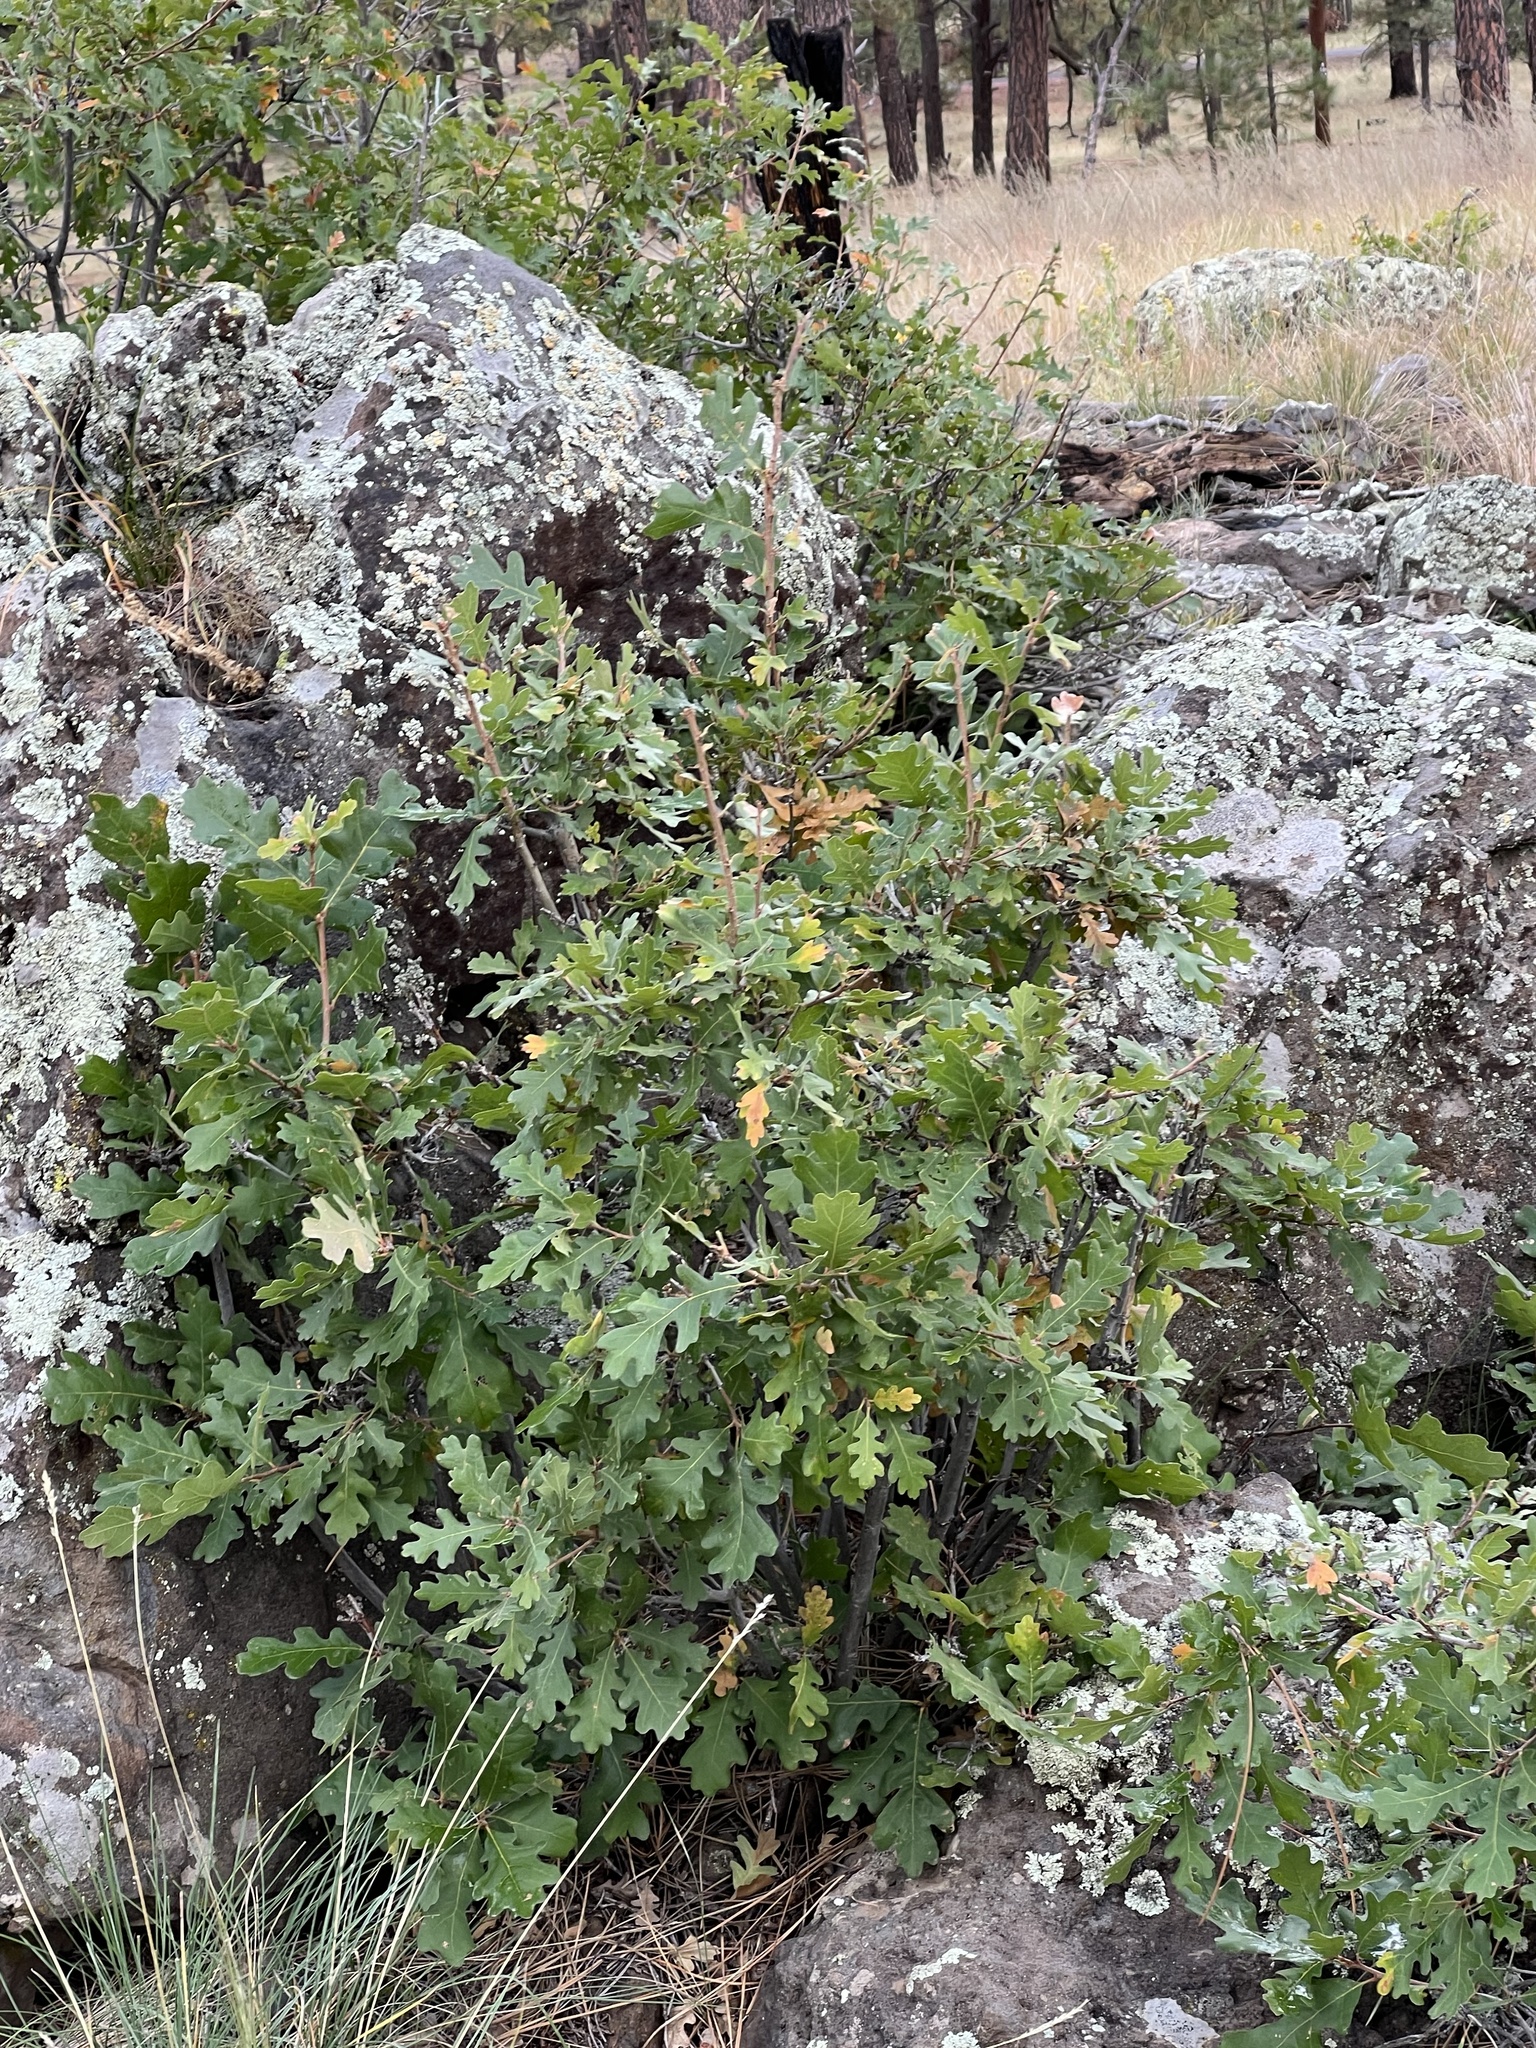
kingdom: Plantae
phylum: Tracheophyta
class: Magnoliopsida
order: Fagales
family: Fagaceae
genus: Quercus
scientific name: Quercus gambelii
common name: Gambel oak
